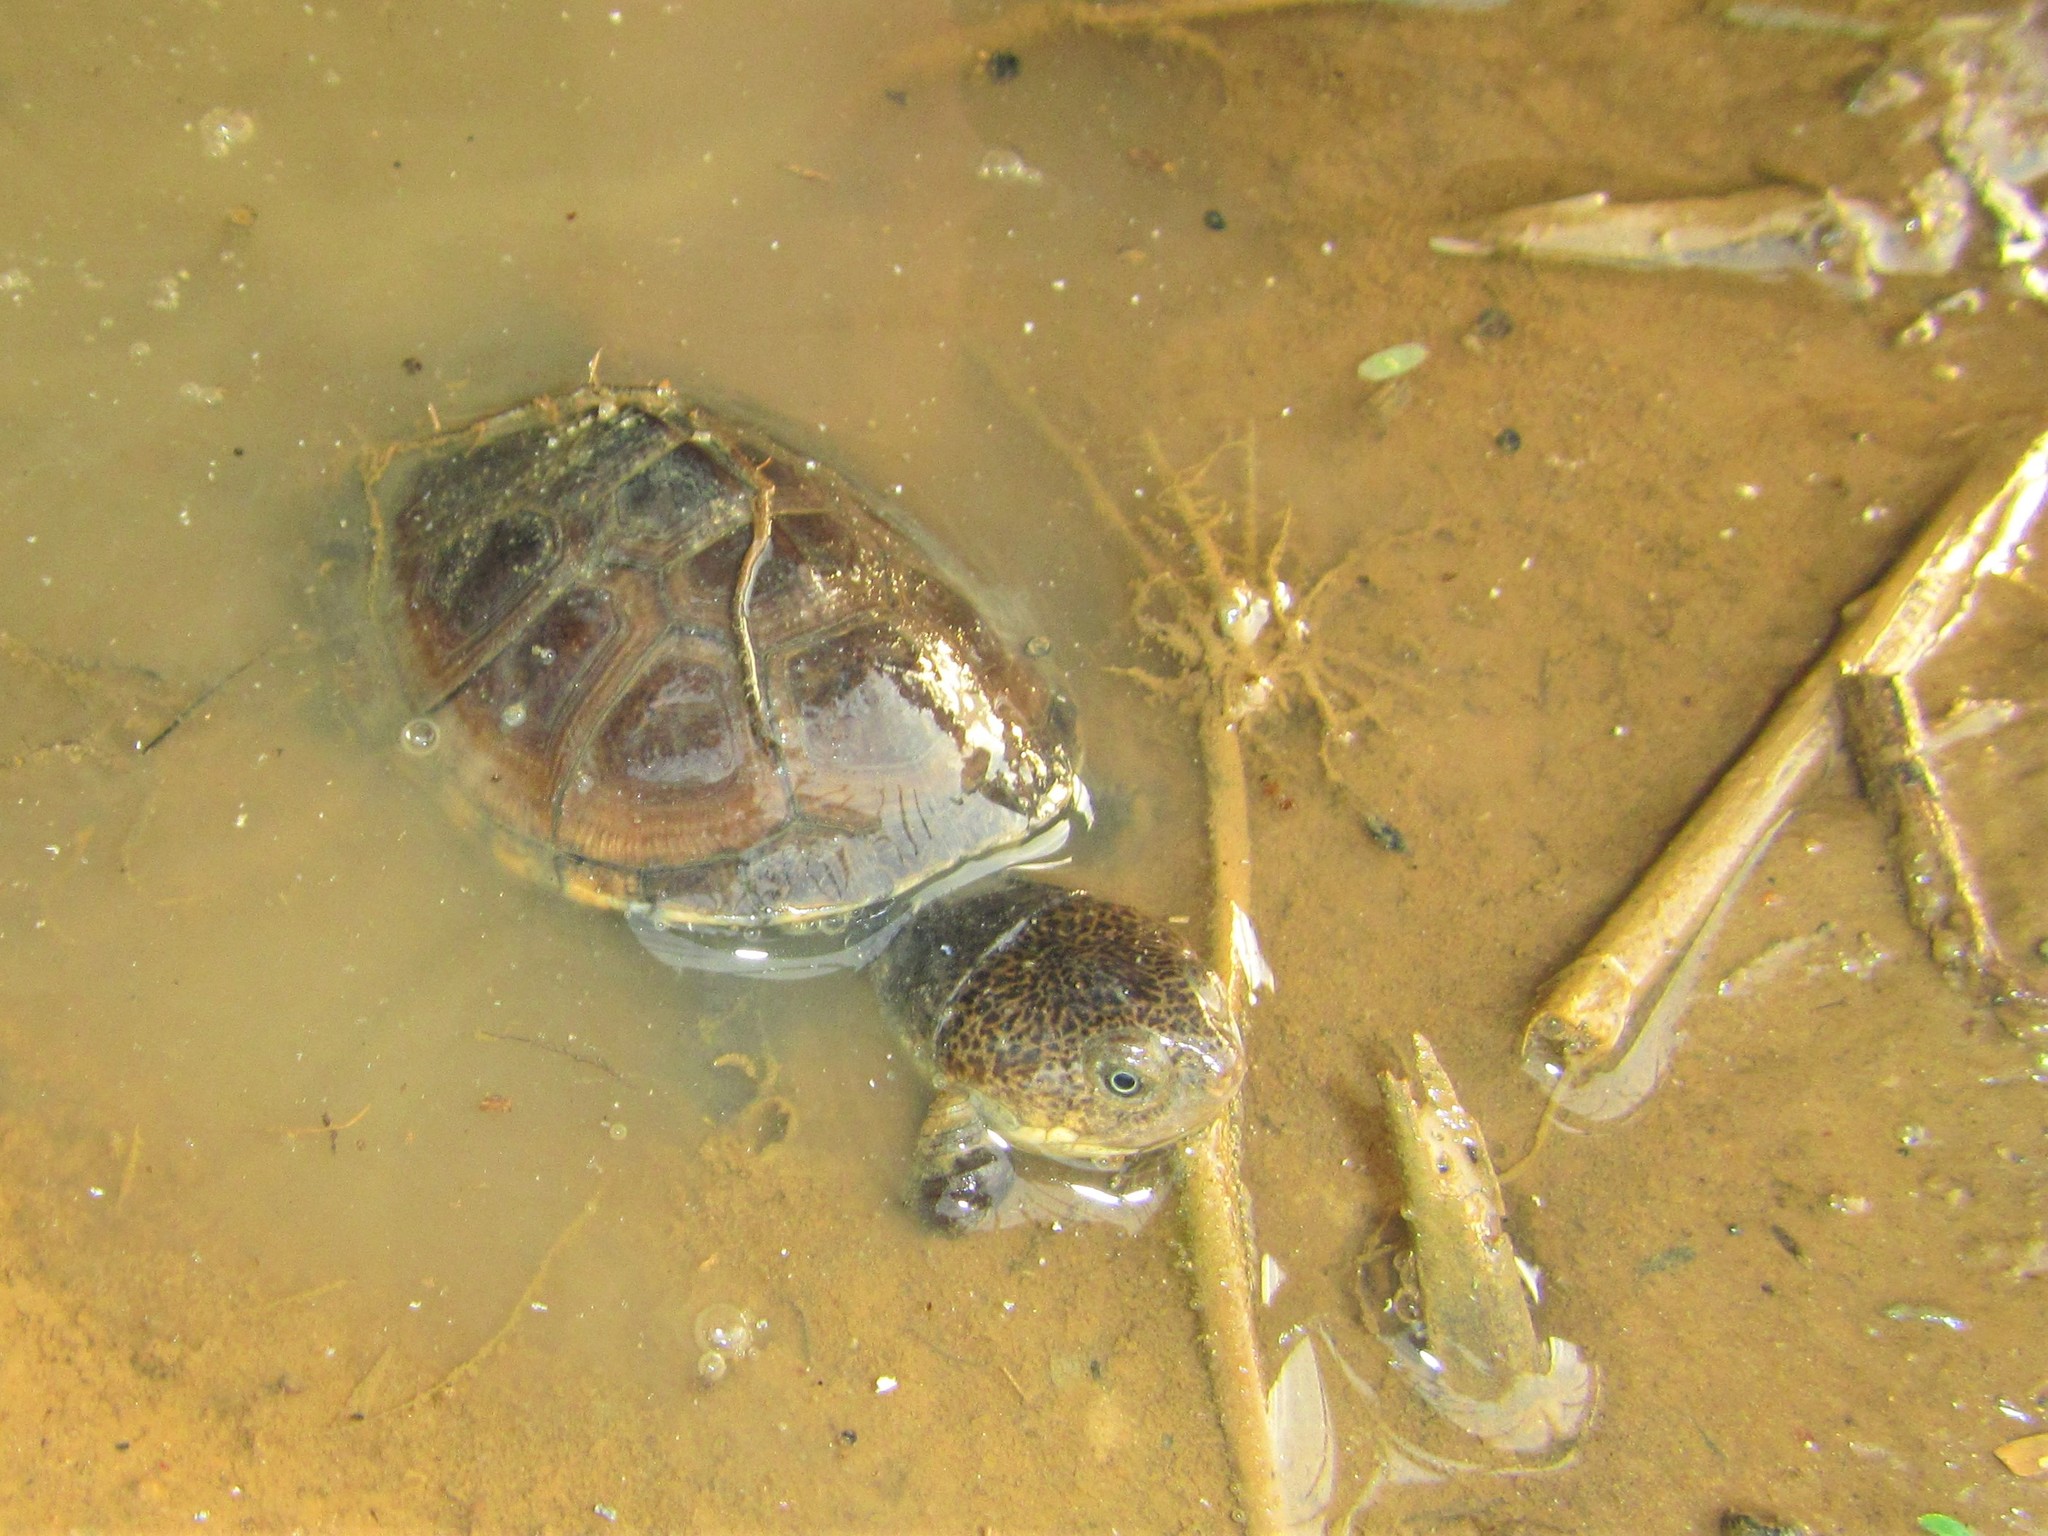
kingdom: Animalia
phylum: Chordata
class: Testudines
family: Pelomedusidae
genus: Pelomedusa
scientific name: Pelomedusa subrufa
